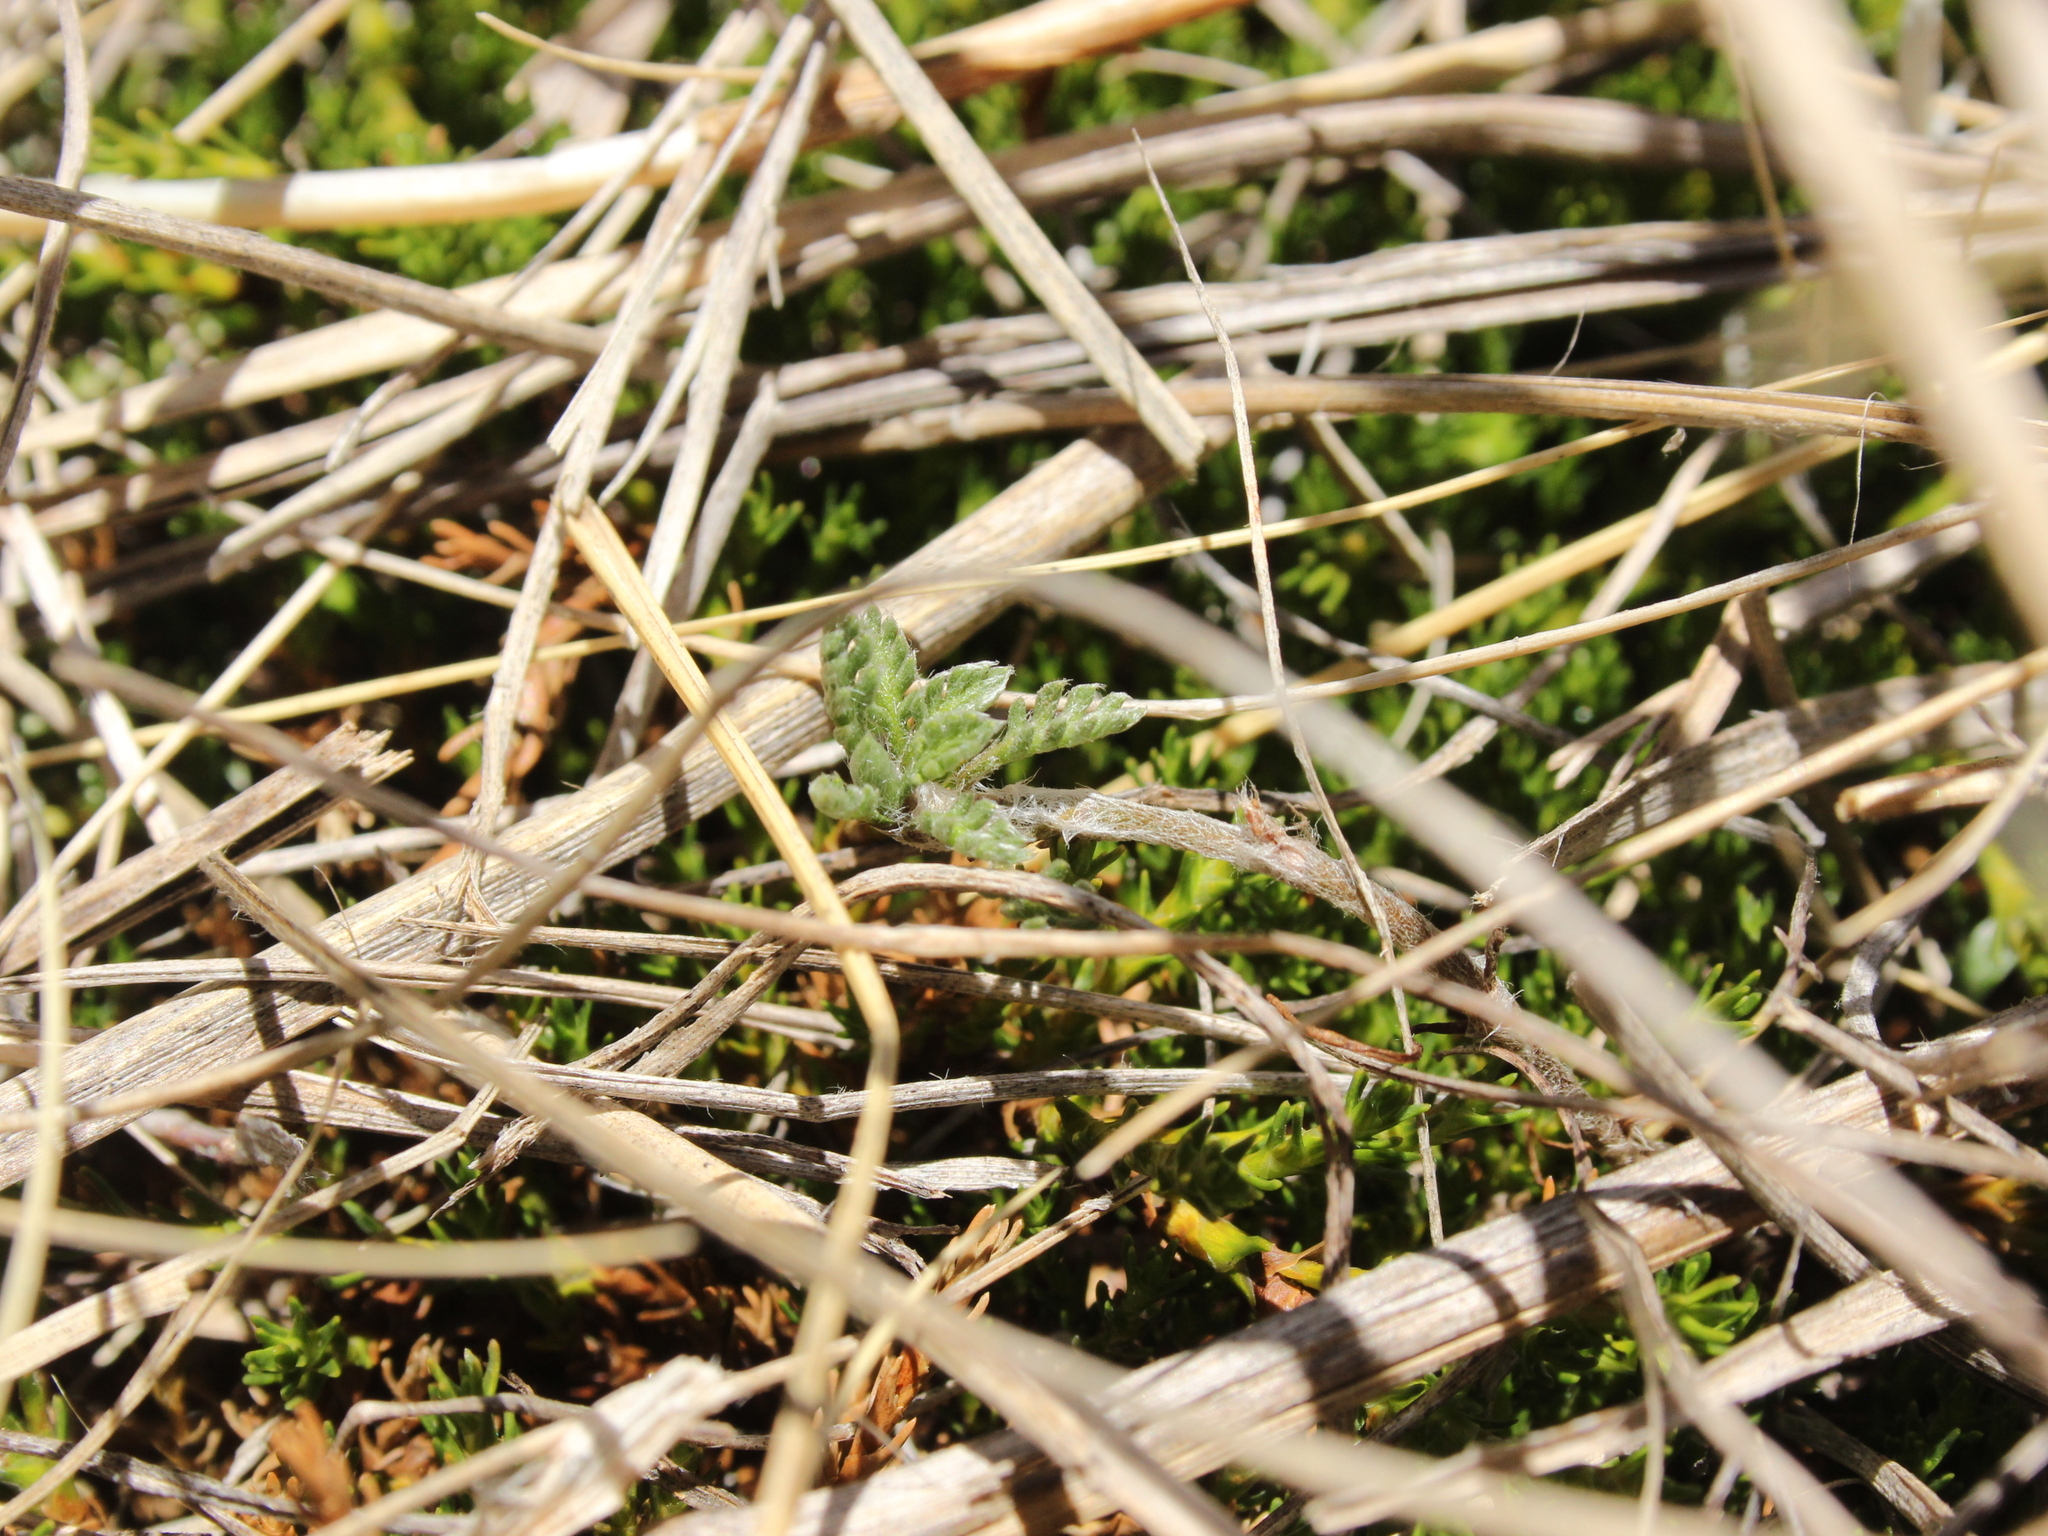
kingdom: Plantae
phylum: Tracheophyta
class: Magnoliopsida
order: Asterales
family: Asteraceae
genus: Leptinella
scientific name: Leptinella pectinata
